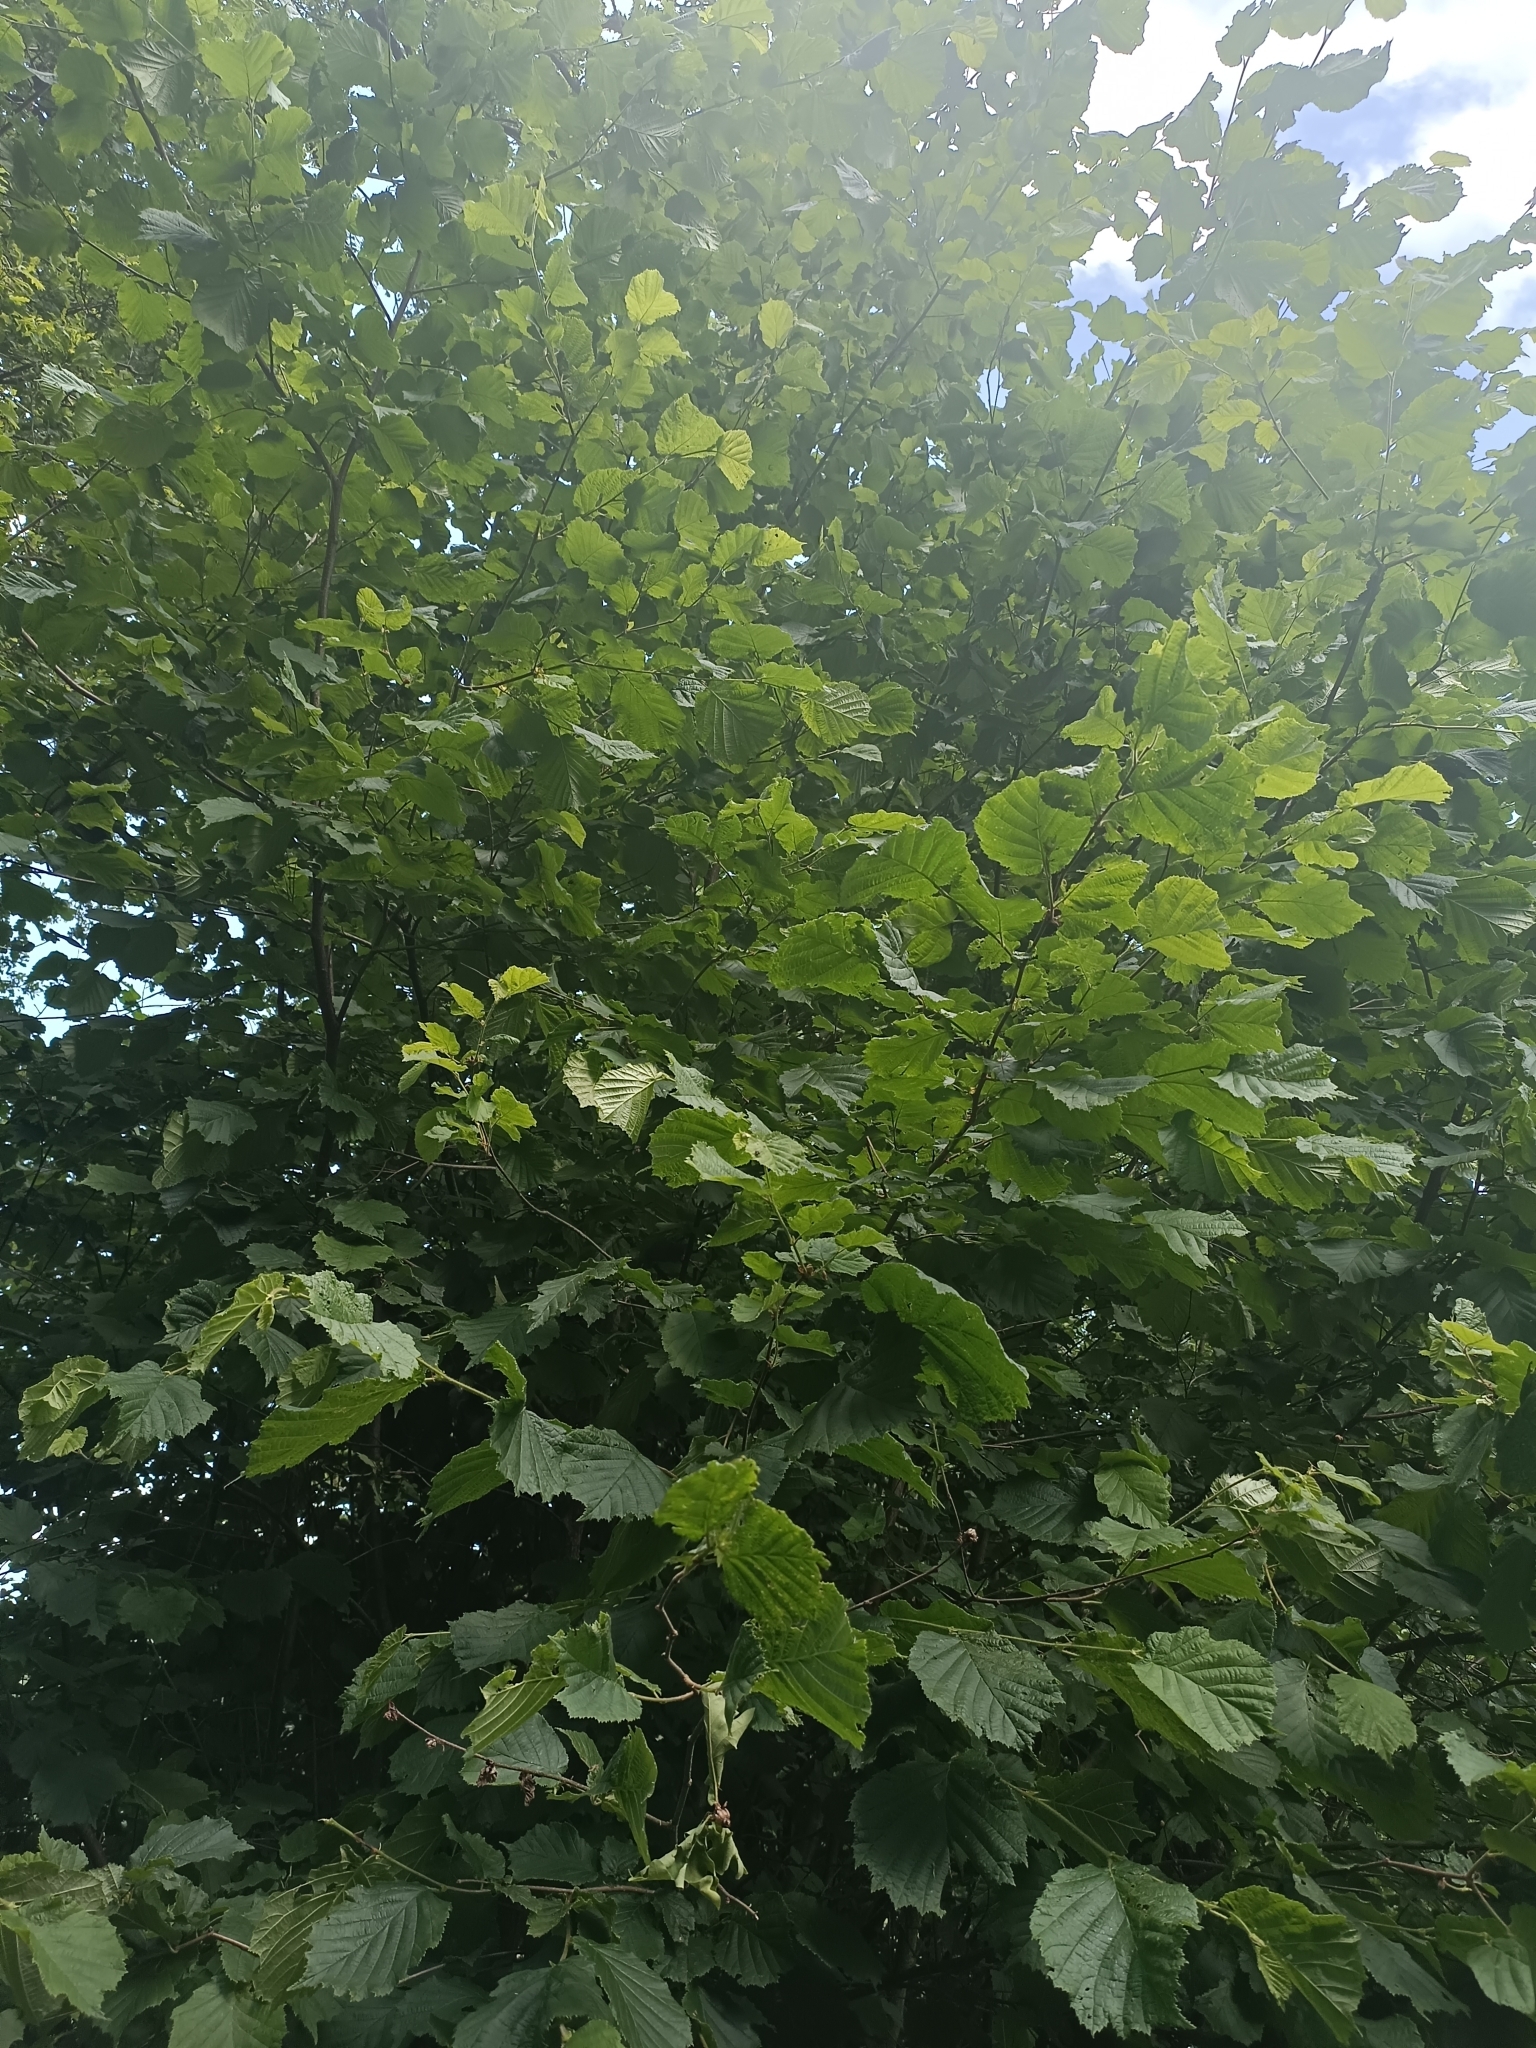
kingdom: Plantae
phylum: Tracheophyta
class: Magnoliopsida
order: Fagales
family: Betulaceae
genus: Corylus
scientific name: Corylus avellana
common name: European hazel
